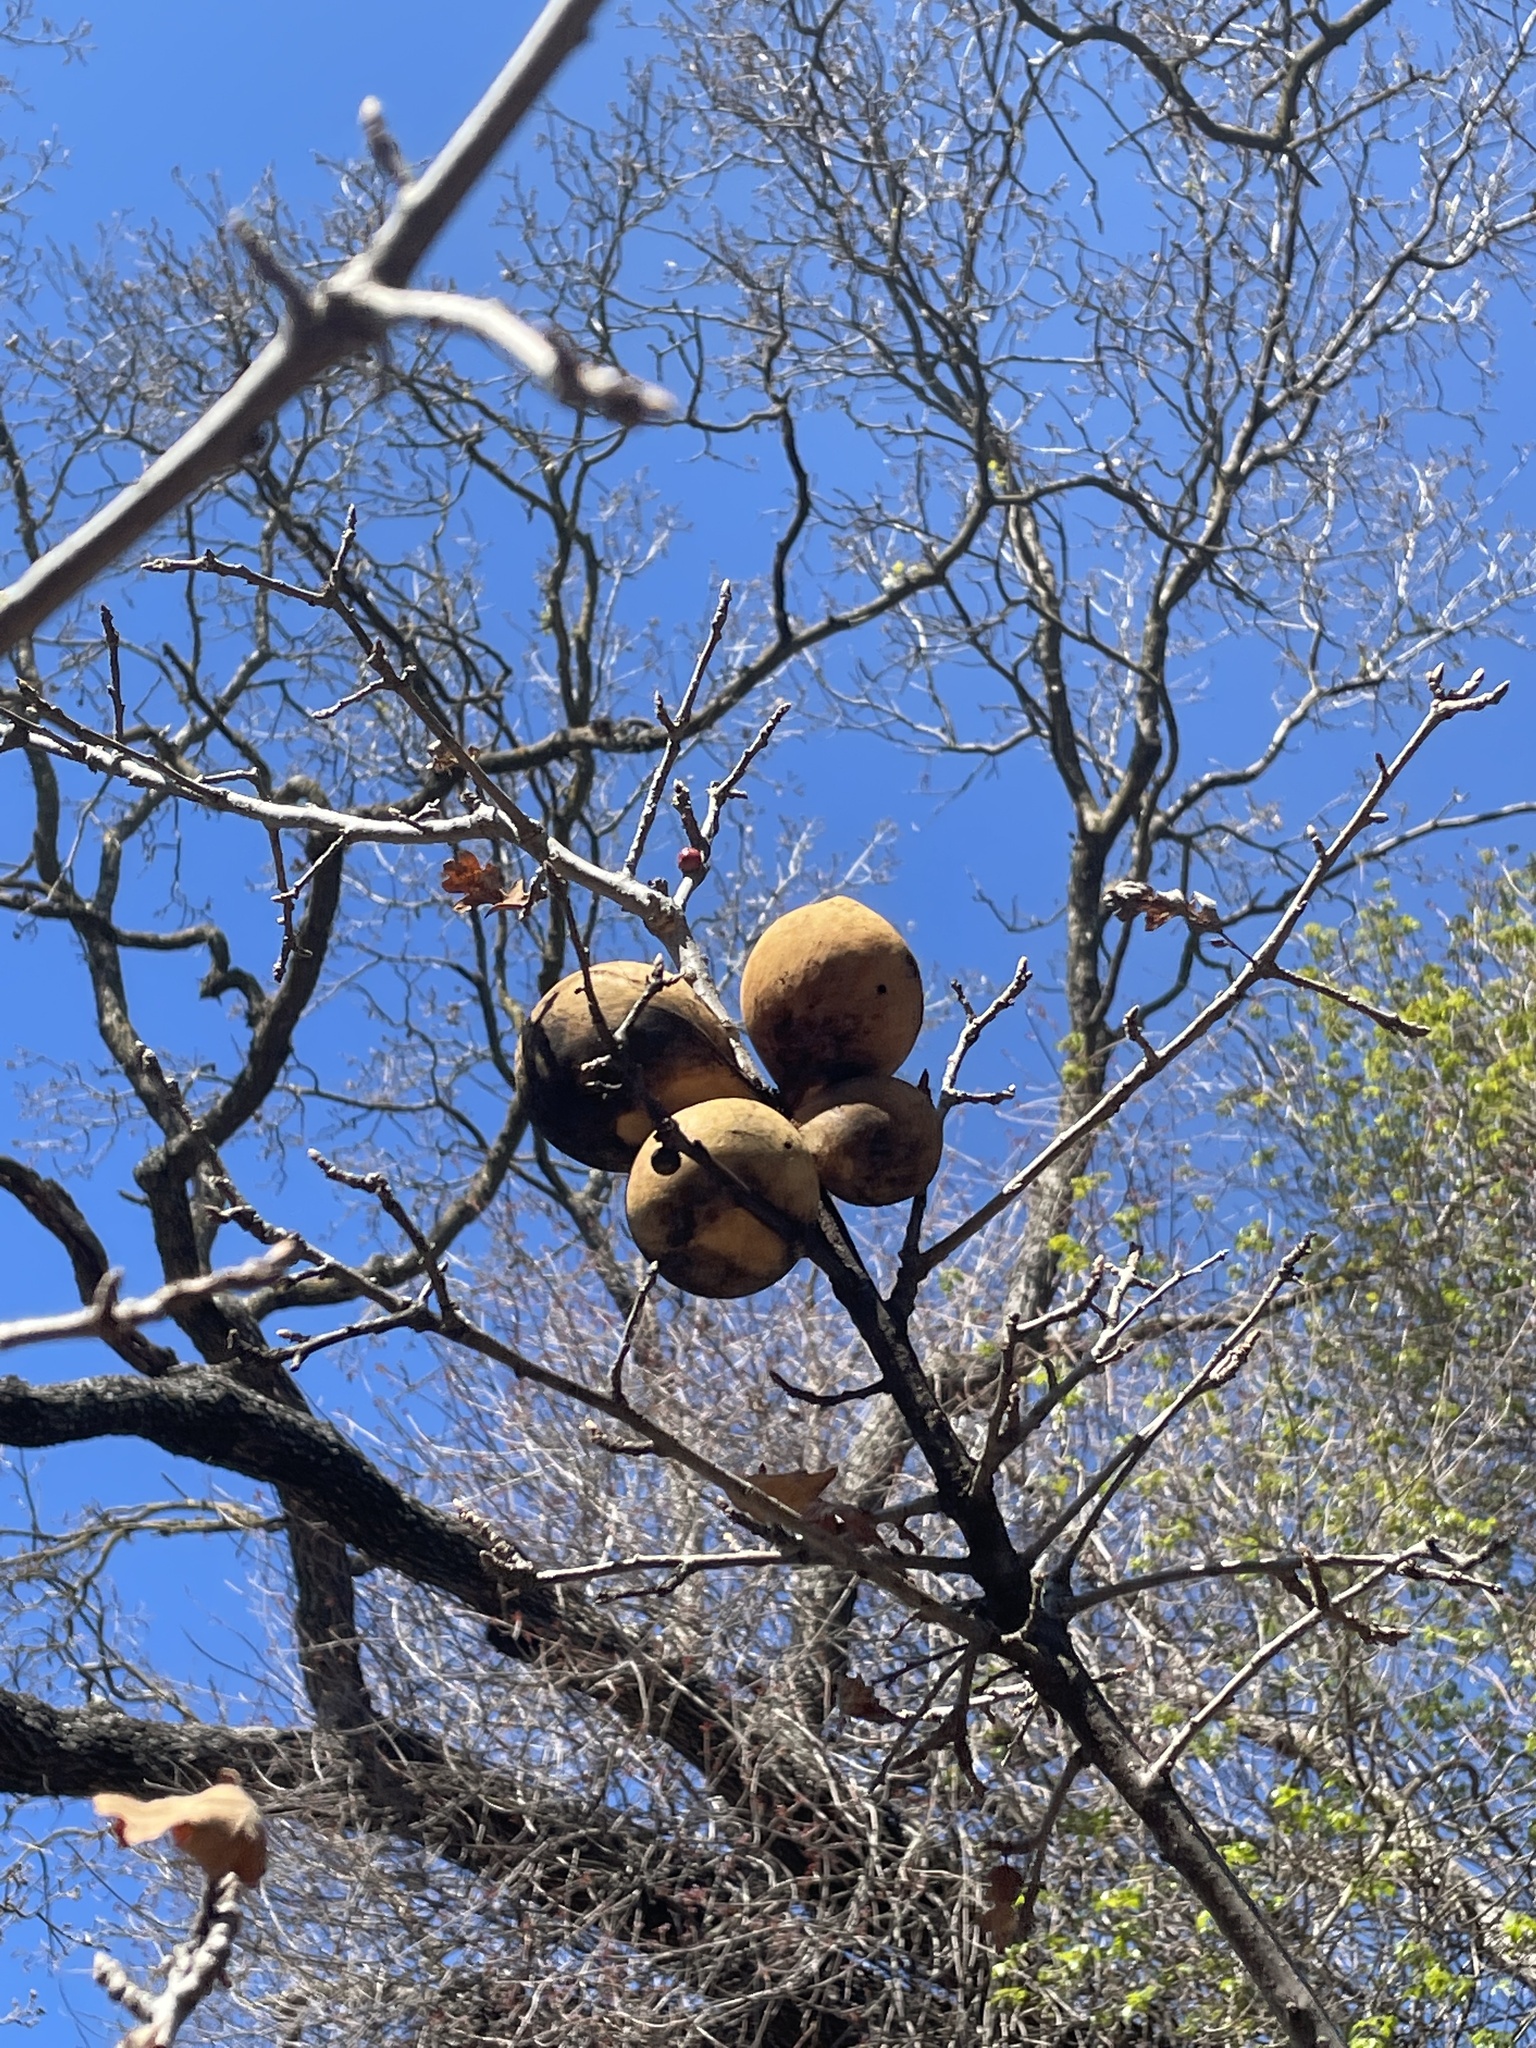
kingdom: Animalia
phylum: Arthropoda
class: Insecta
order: Hymenoptera
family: Cynipidae
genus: Andricus
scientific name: Andricus quercuscalifornicus
